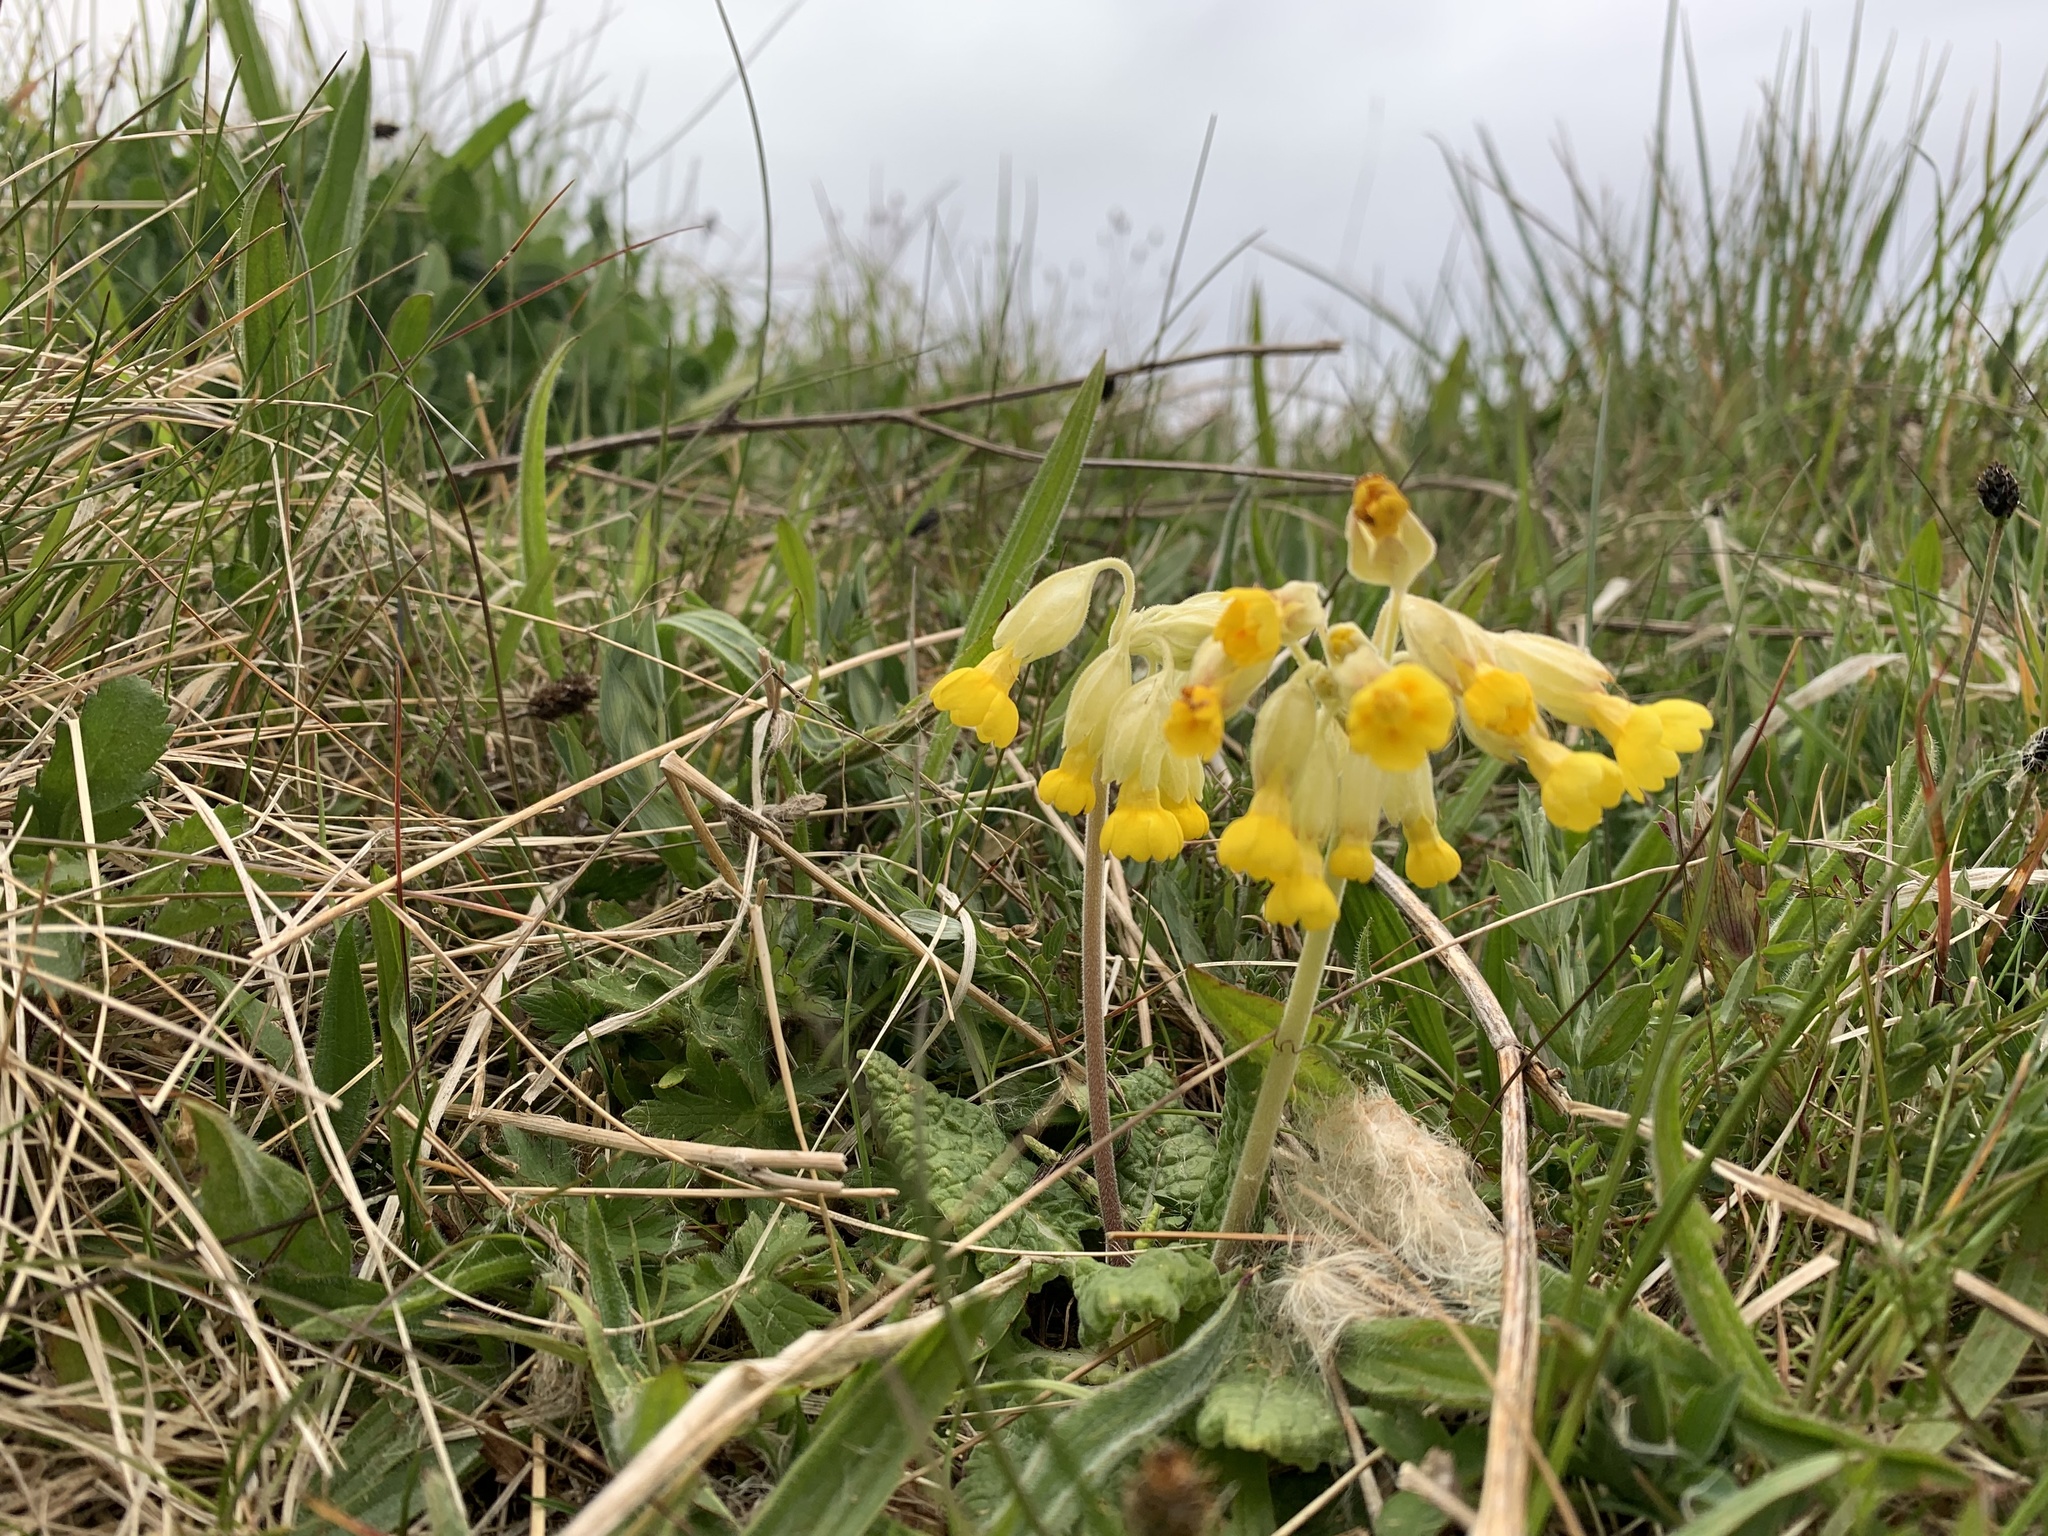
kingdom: Plantae
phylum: Tracheophyta
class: Magnoliopsida
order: Ericales
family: Primulaceae
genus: Primula
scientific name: Primula veris
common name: Cowslip
